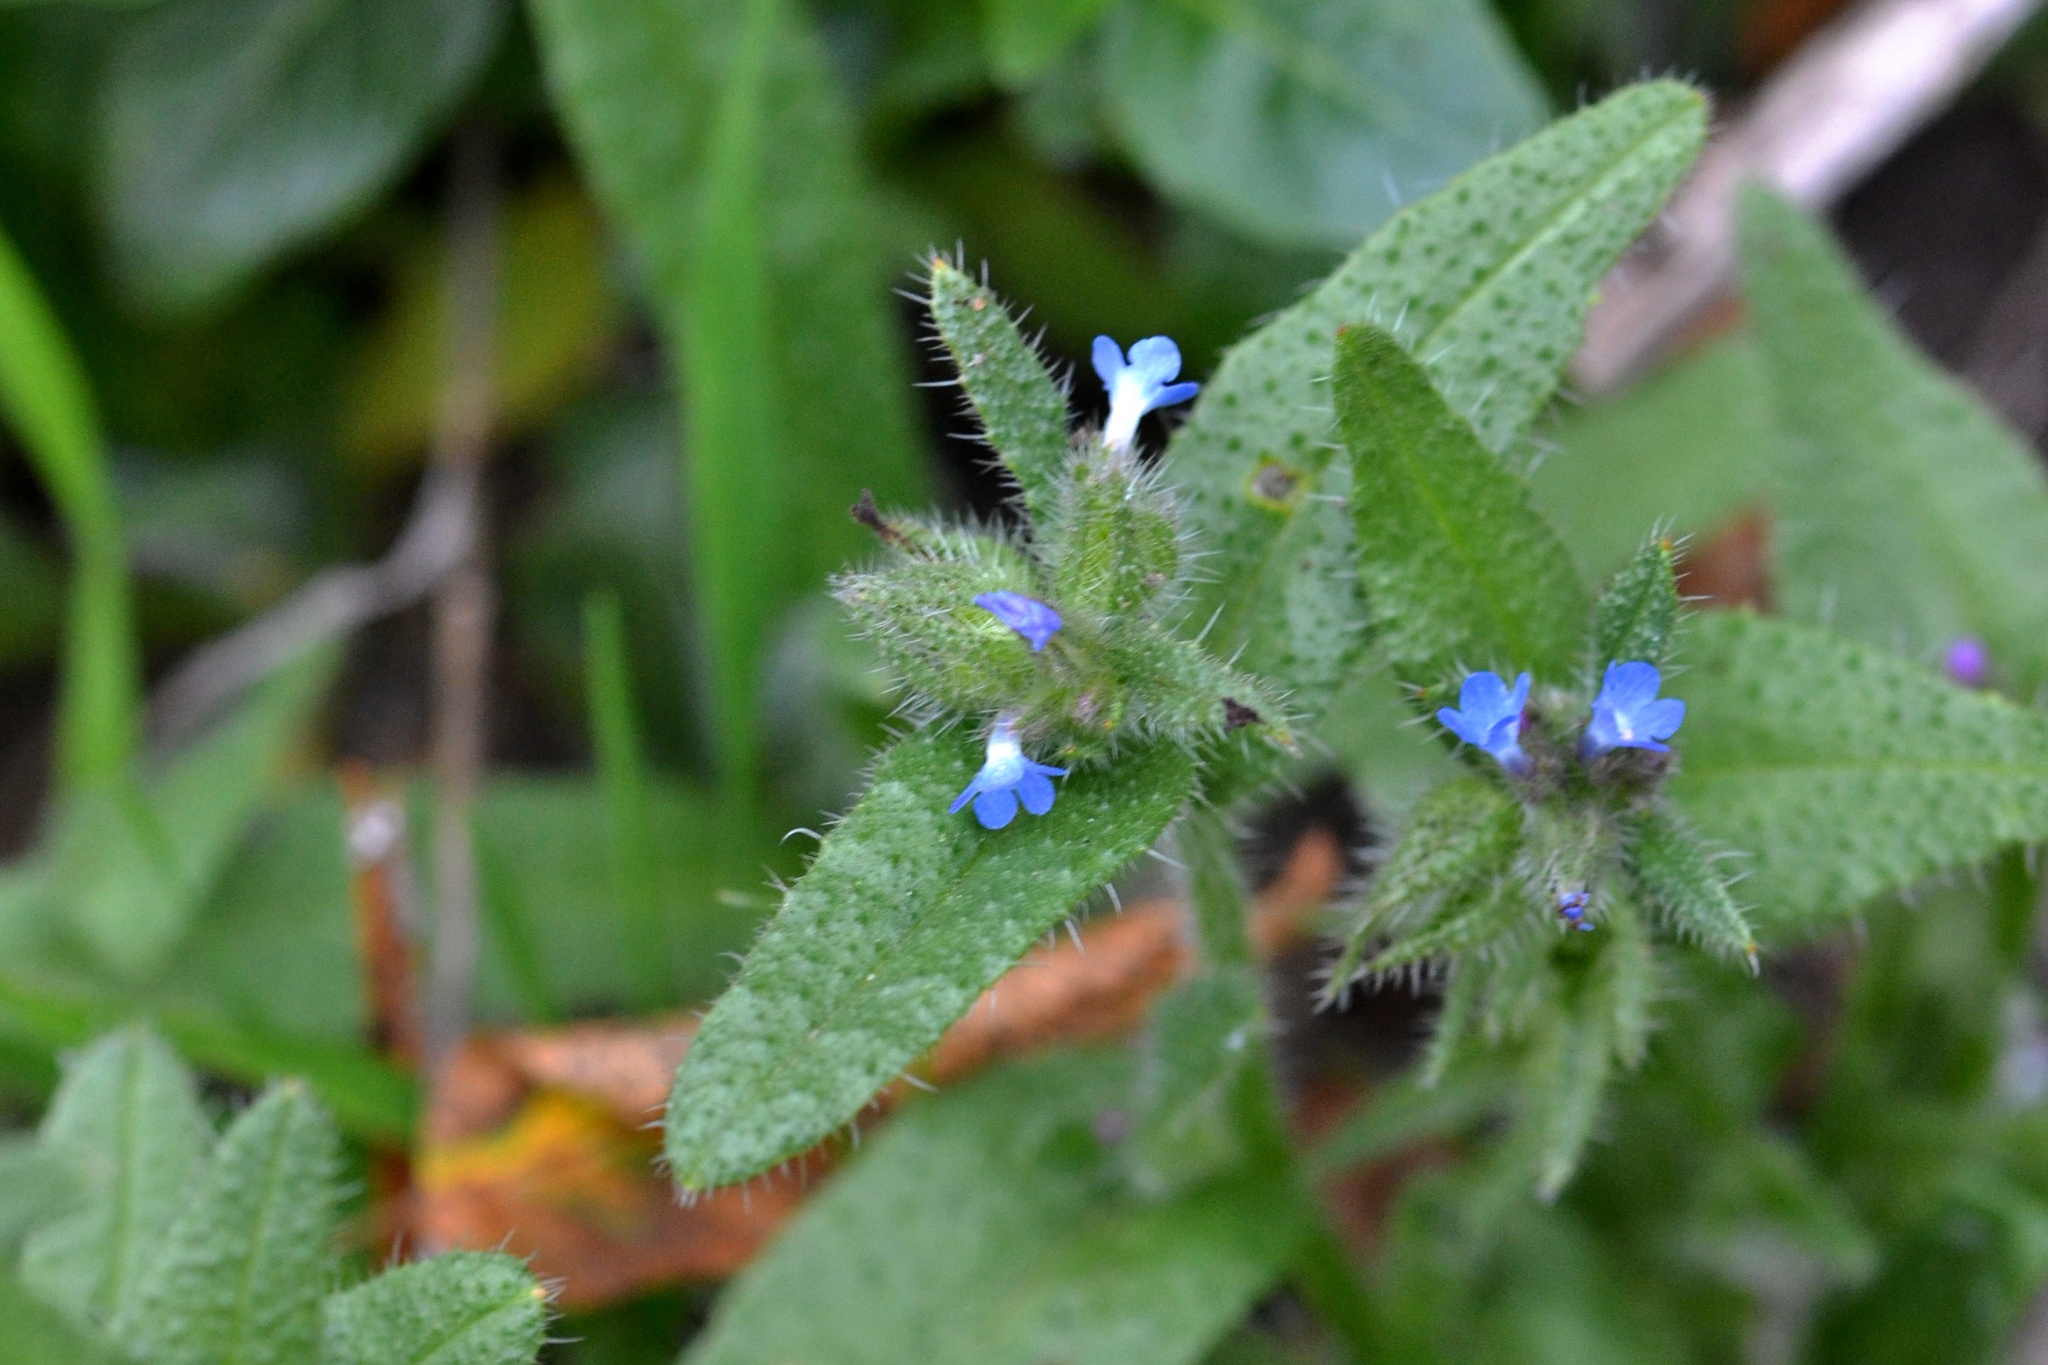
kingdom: Plantae
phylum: Tracheophyta
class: Magnoliopsida
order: Boraginales
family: Boraginaceae
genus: Lycopsis
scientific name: Lycopsis arvensis
